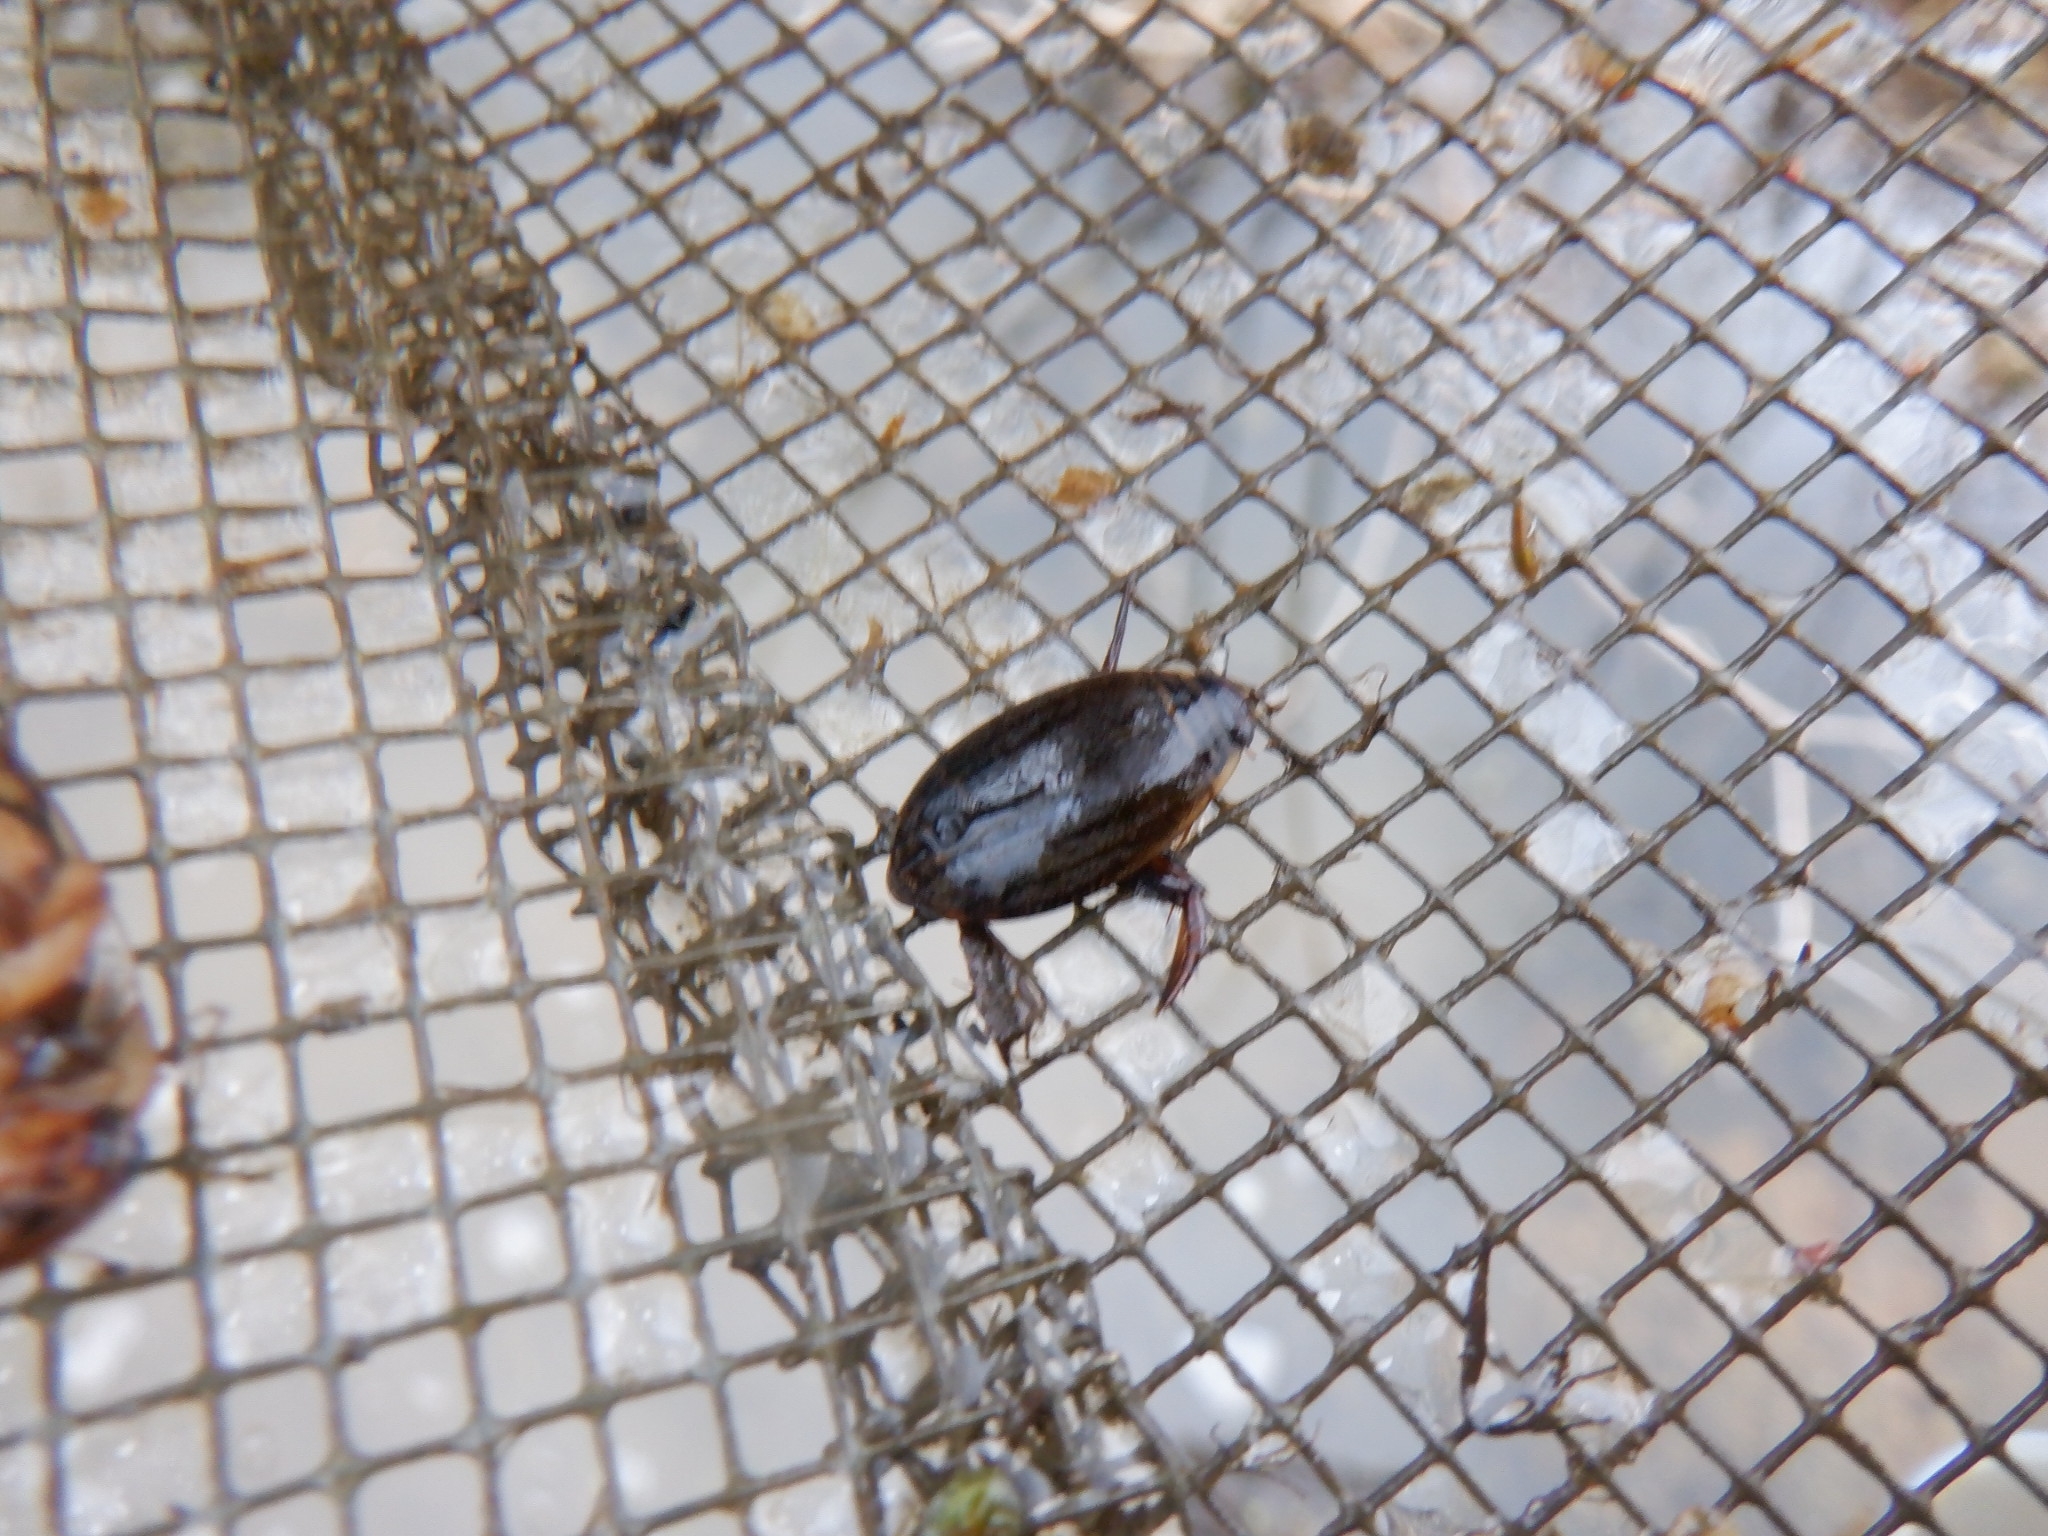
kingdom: Animalia
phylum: Arthropoda
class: Insecta
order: Coleoptera
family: Dytiscidae
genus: Acilius
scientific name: Acilius
